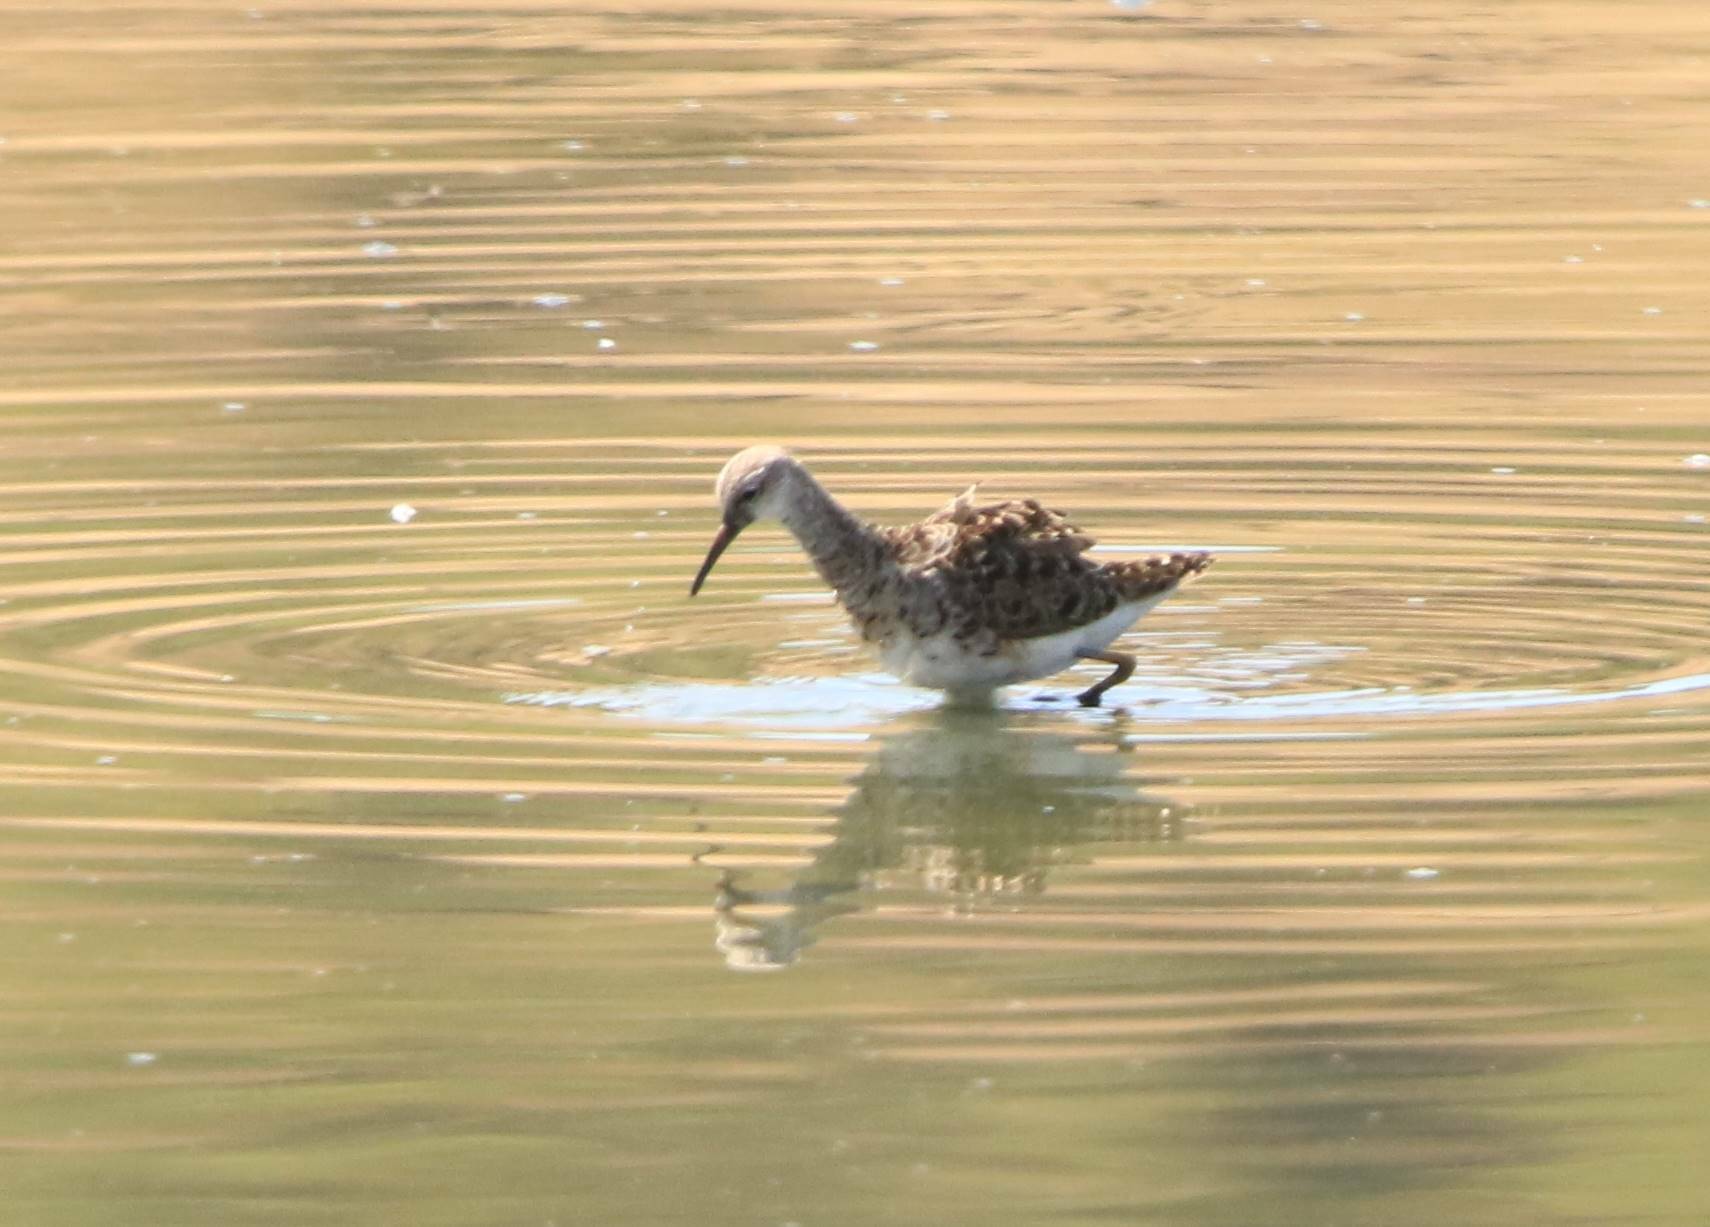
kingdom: Animalia
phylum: Chordata
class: Aves
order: Charadriiformes
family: Scolopacidae
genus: Calidris
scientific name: Calidris pugnax
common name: Ruff
